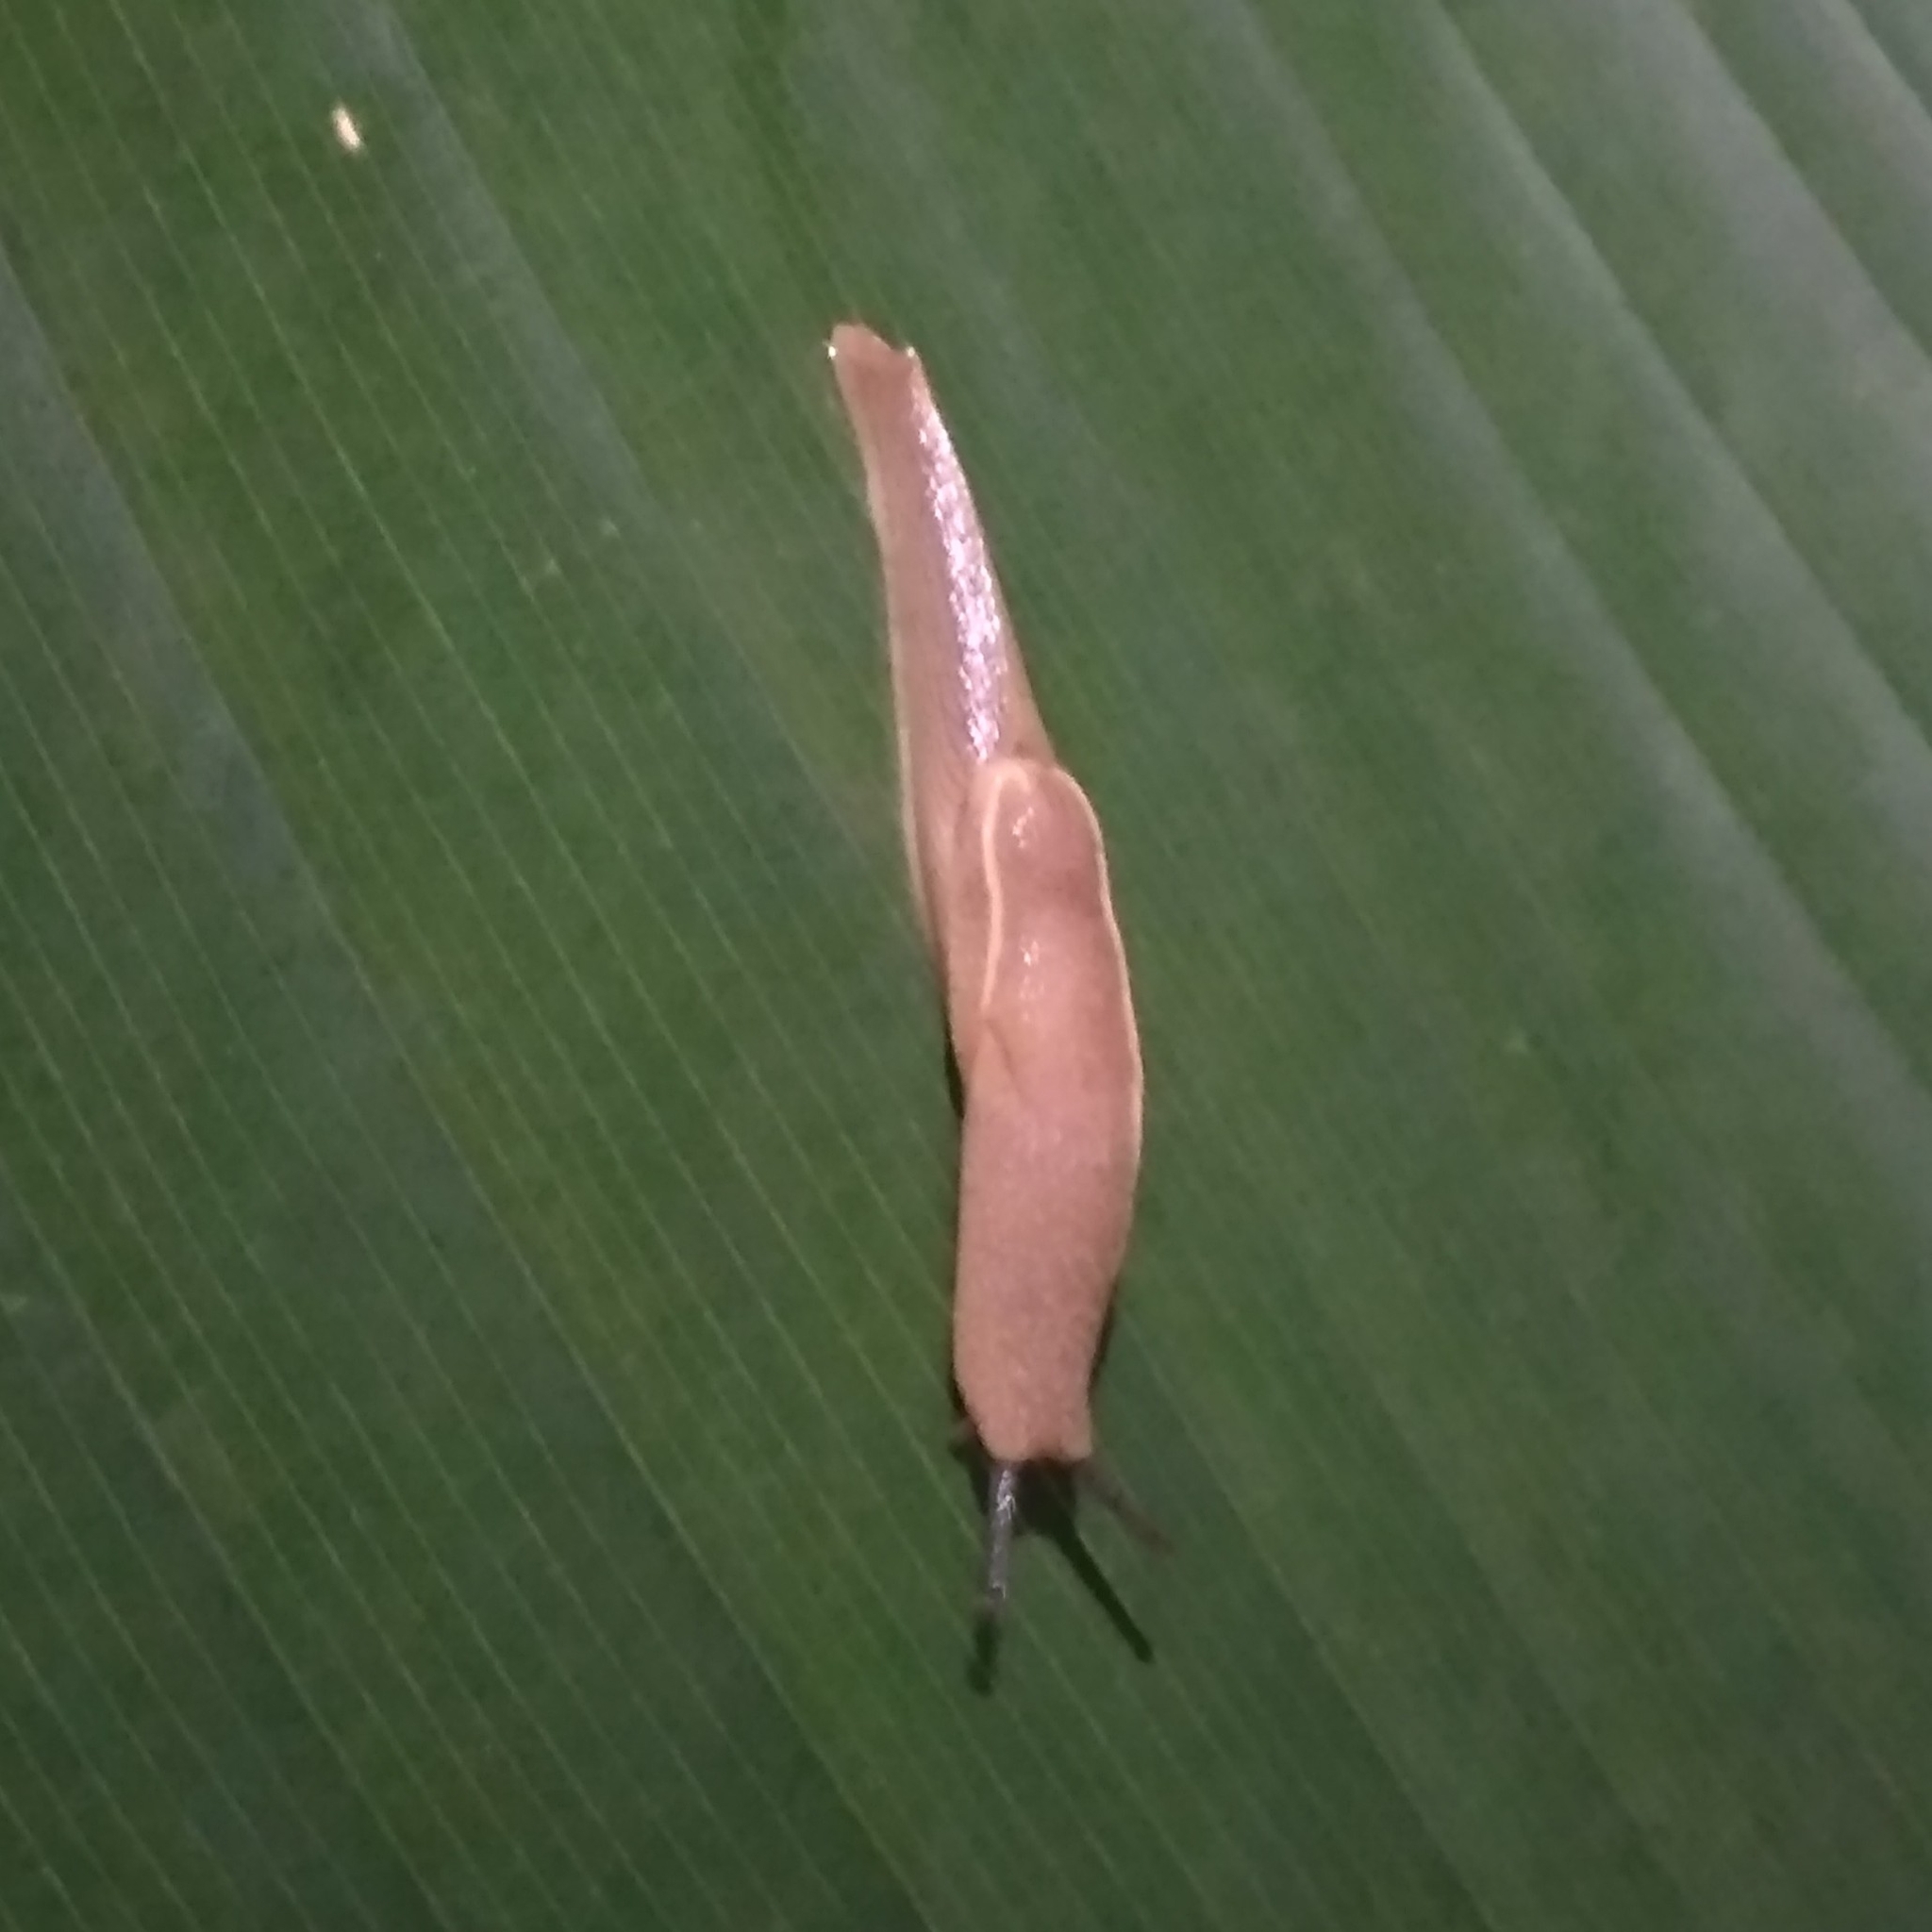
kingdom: Animalia
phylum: Mollusca
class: Gastropoda
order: Stylommatophora
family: Ariophantidae
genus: Mariaella
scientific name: Mariaella dussumieri
